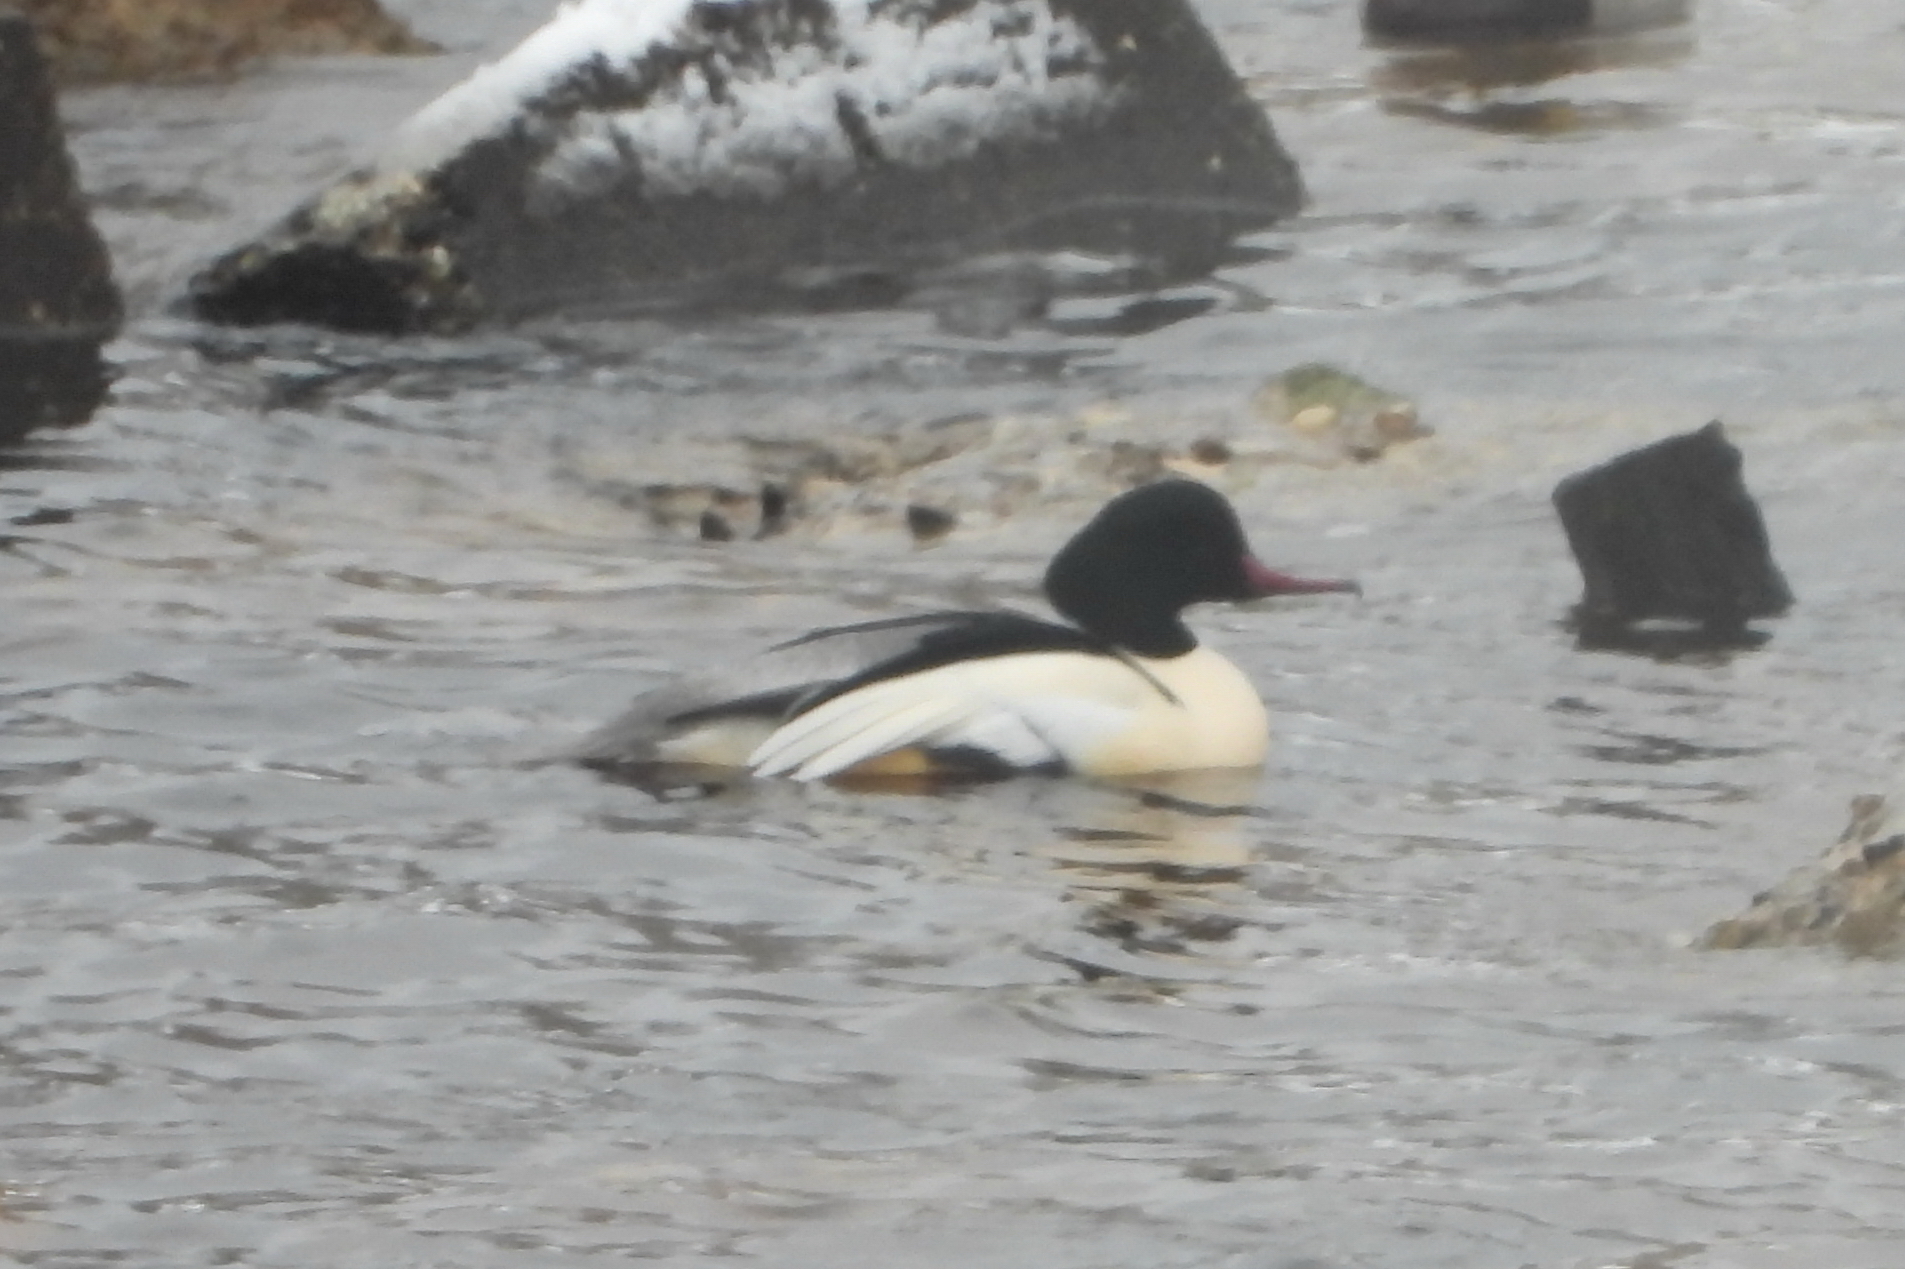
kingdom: Animalia
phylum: Chordata
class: Aves
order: Anseriformes
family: Anatidae
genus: Mergus
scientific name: Mergus merganser
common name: Common merganser
